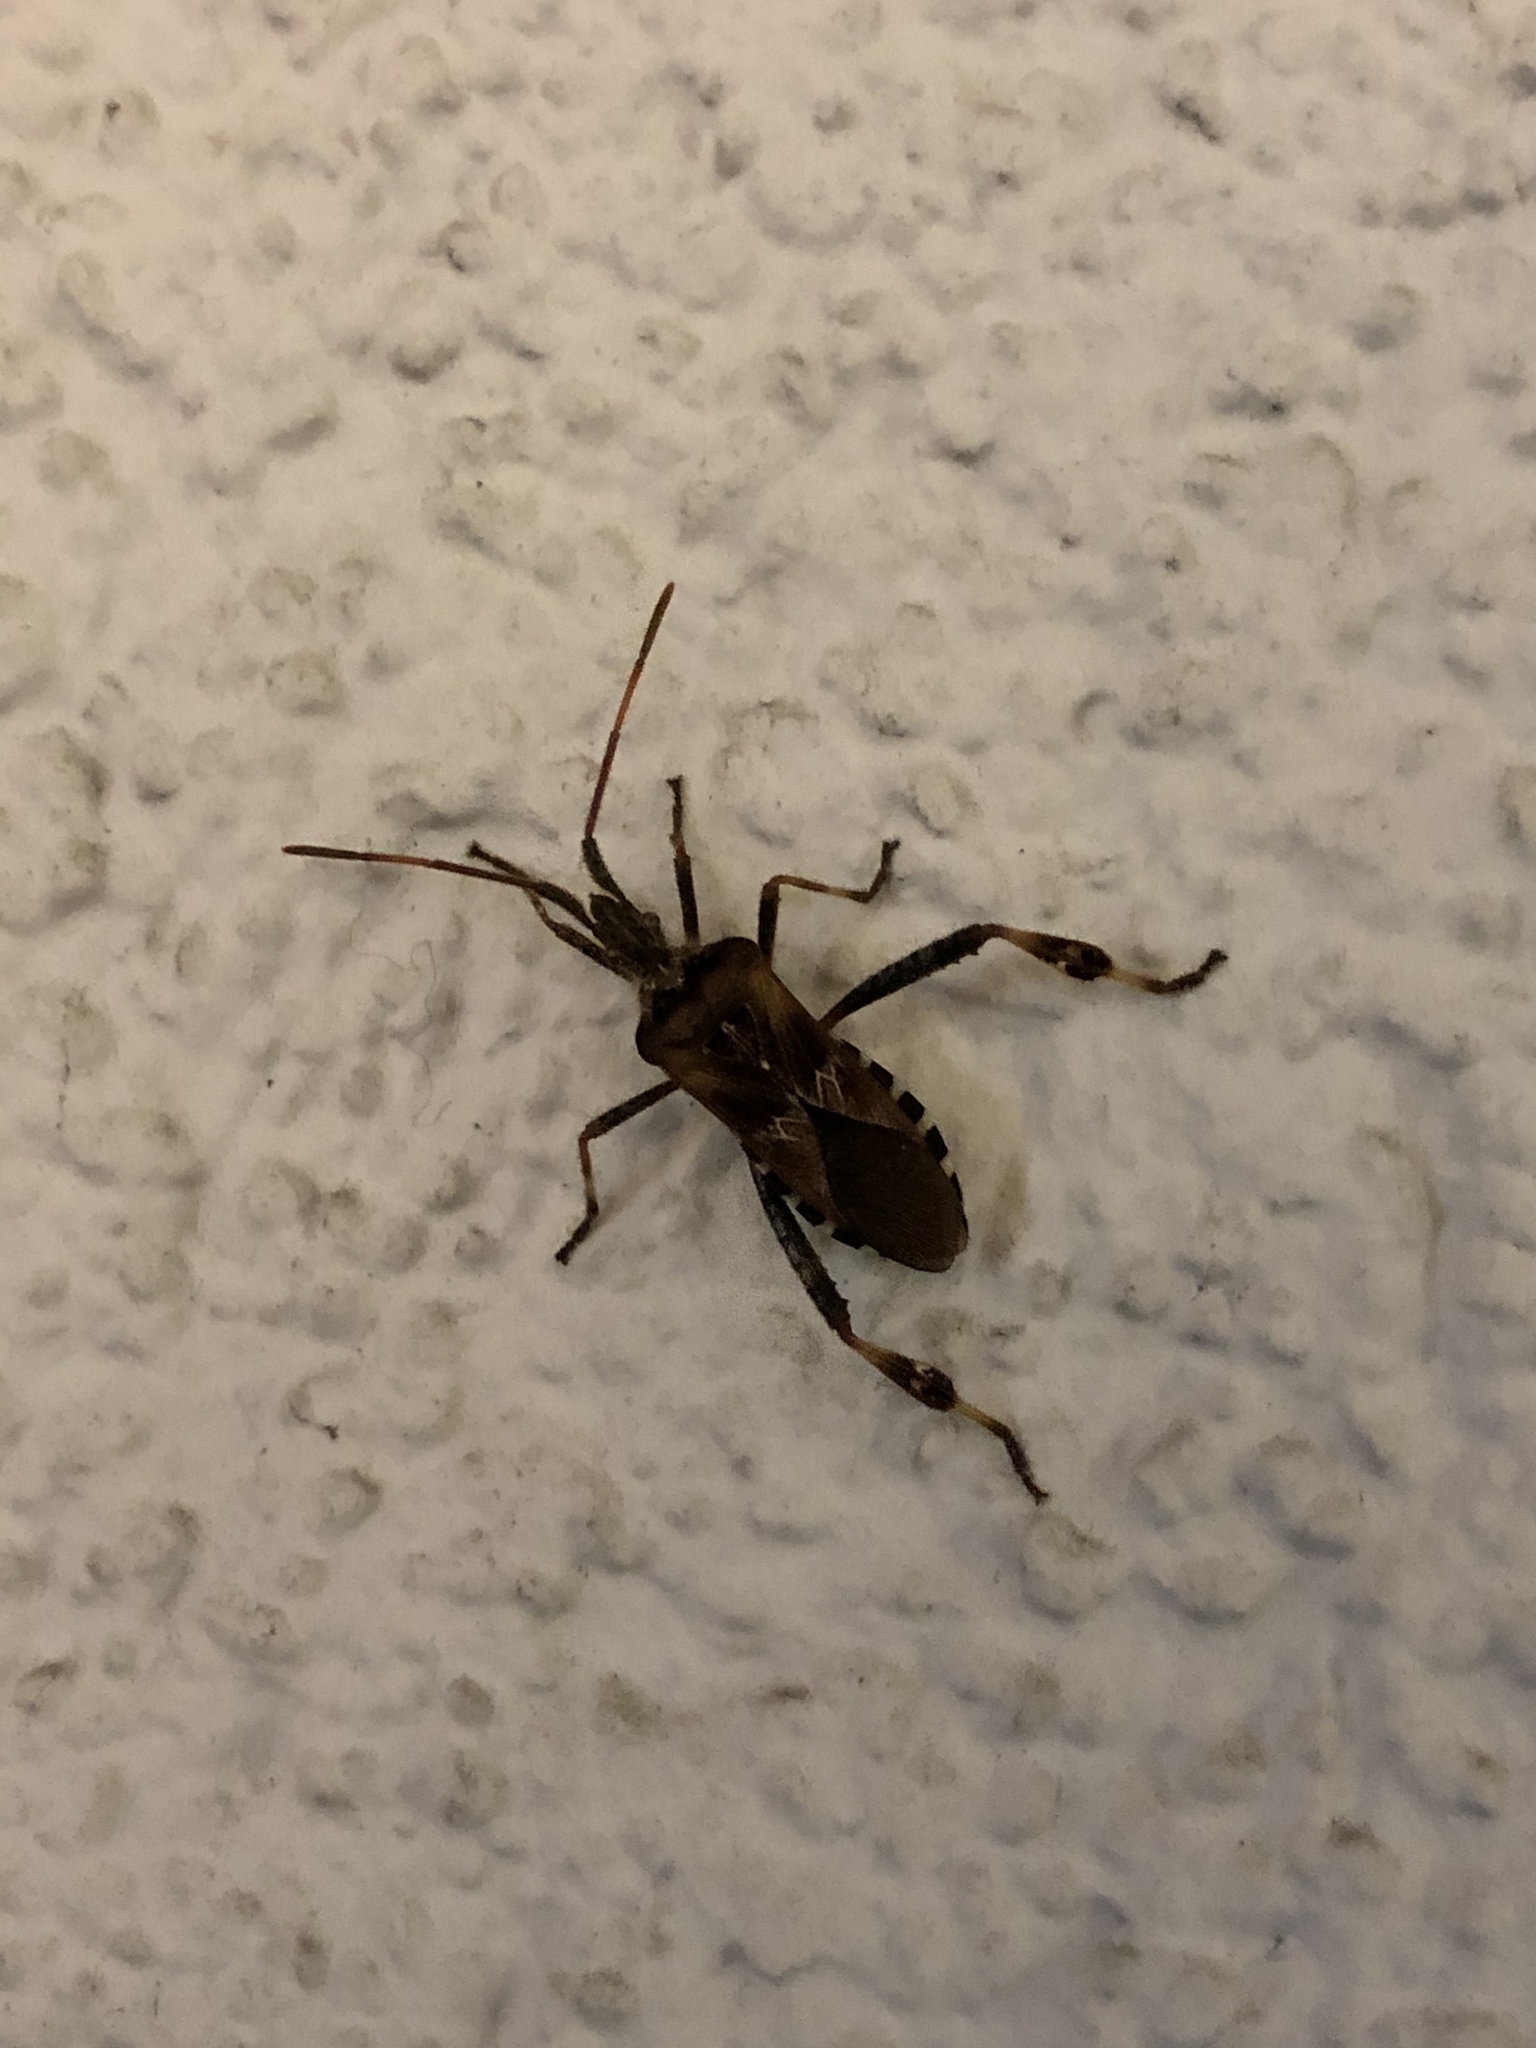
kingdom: Animalia
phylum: Arthropoda
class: Insecta
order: Hemiptera
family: Coreidae
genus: Leptoglossus
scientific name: Leptoglossus occidentalis
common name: Western conifer-seed bug
